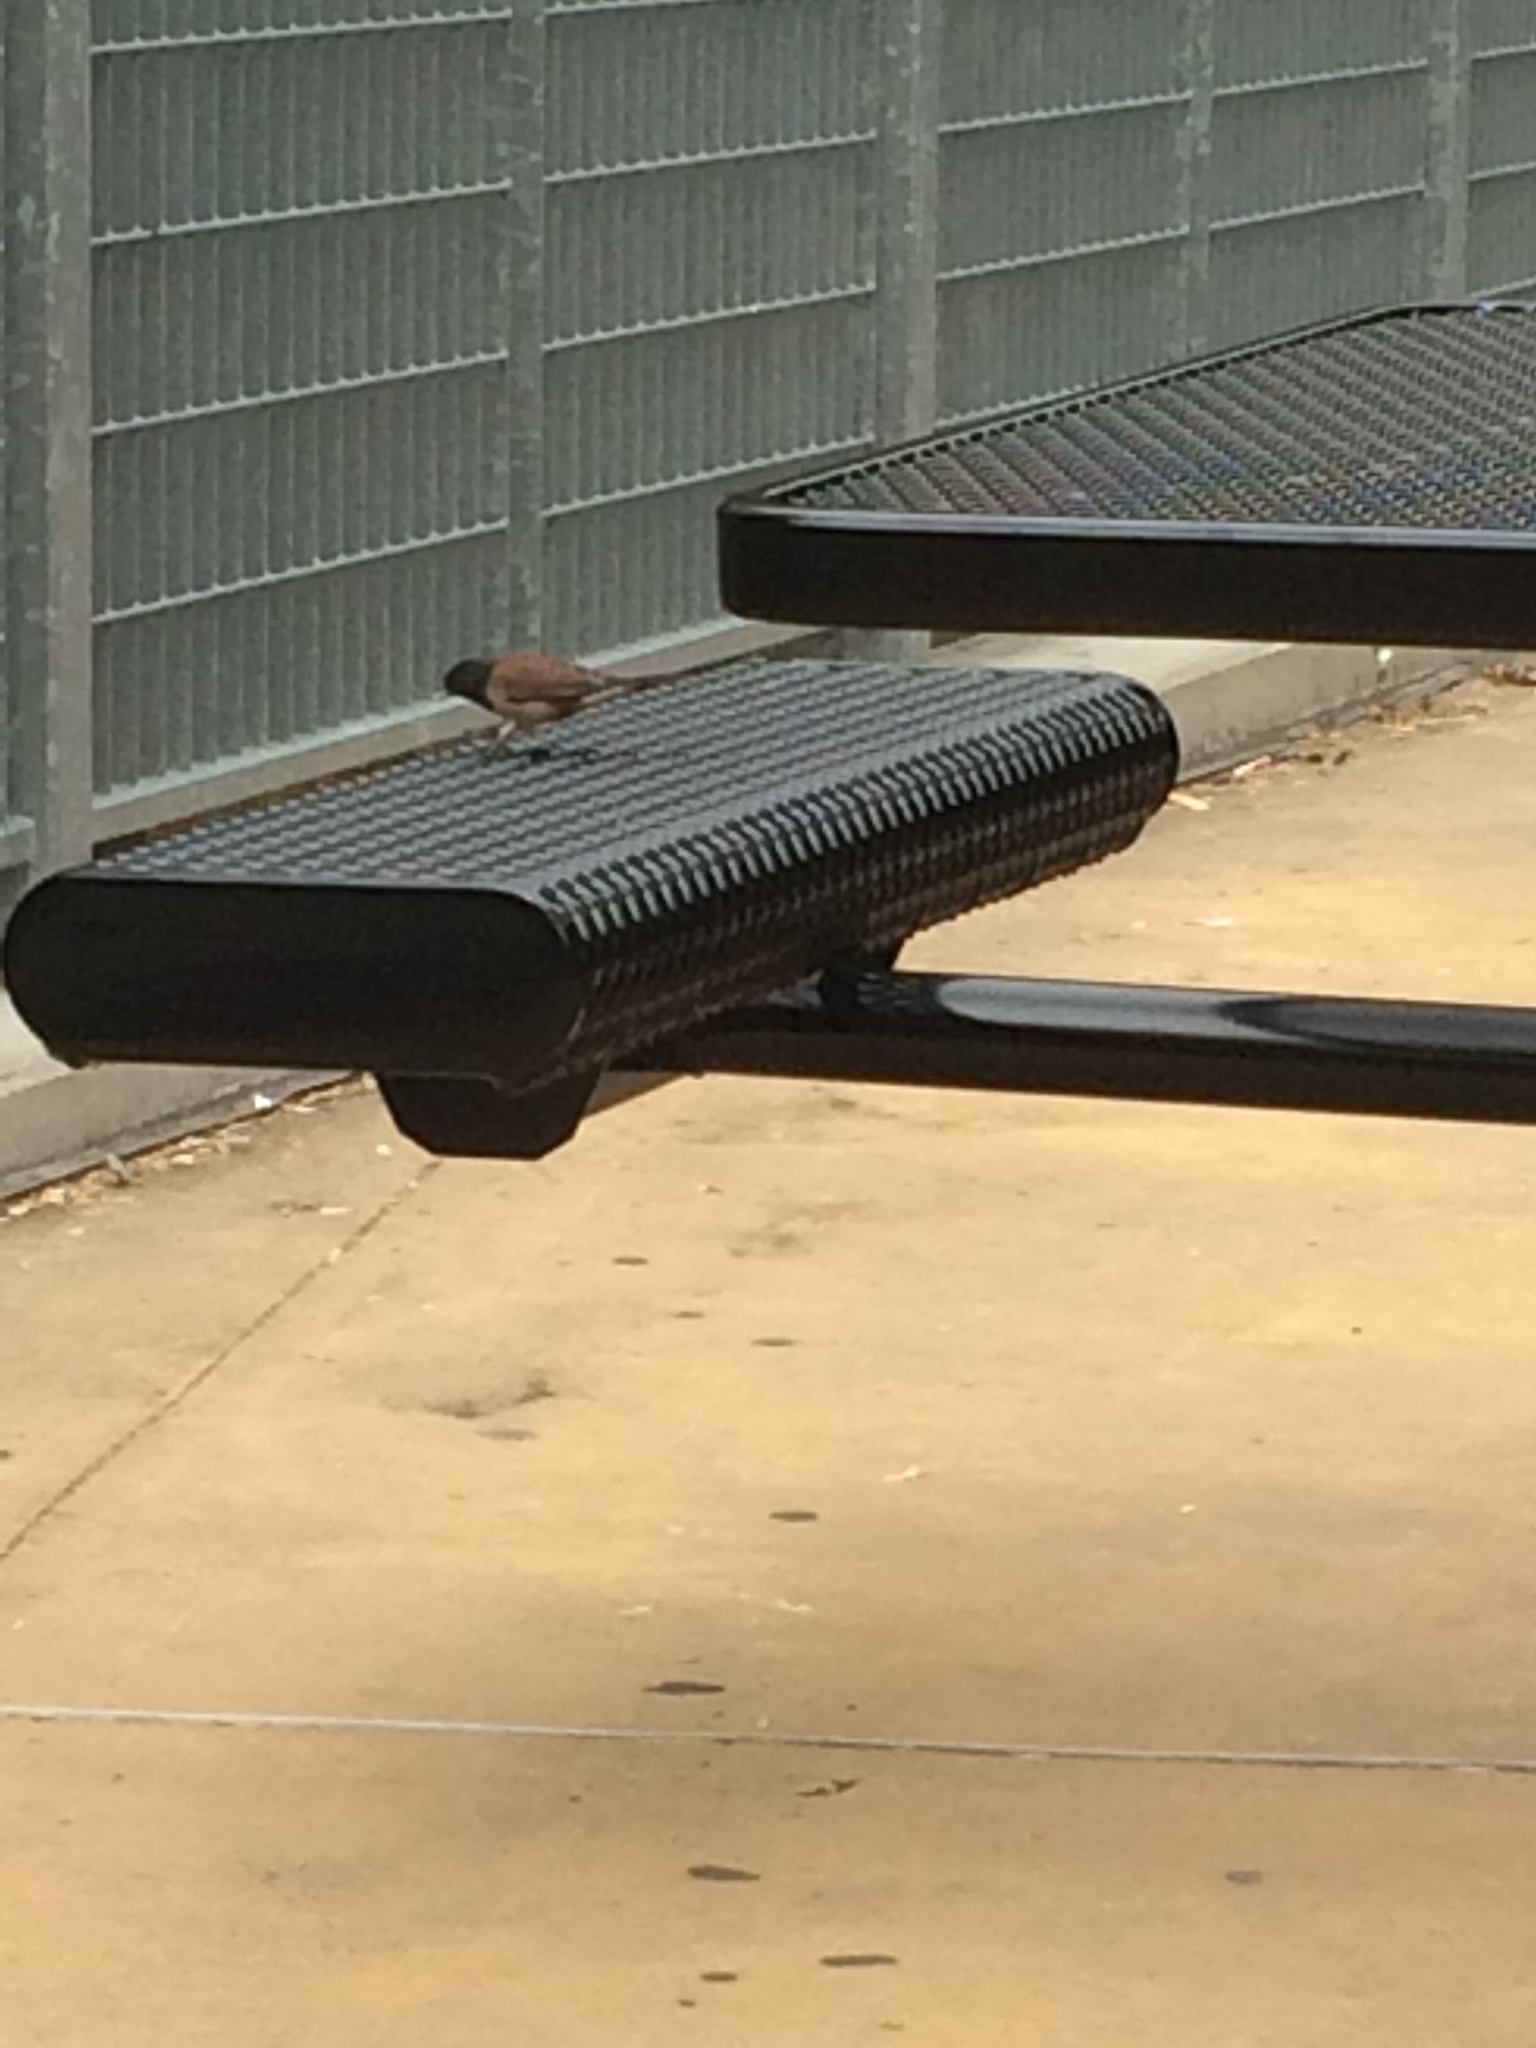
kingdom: Animalia
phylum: Chordata
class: Aves
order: Passeriformes
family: Passerellidae
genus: Junco
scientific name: Junco hyemalis
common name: Dark-eyed junco
